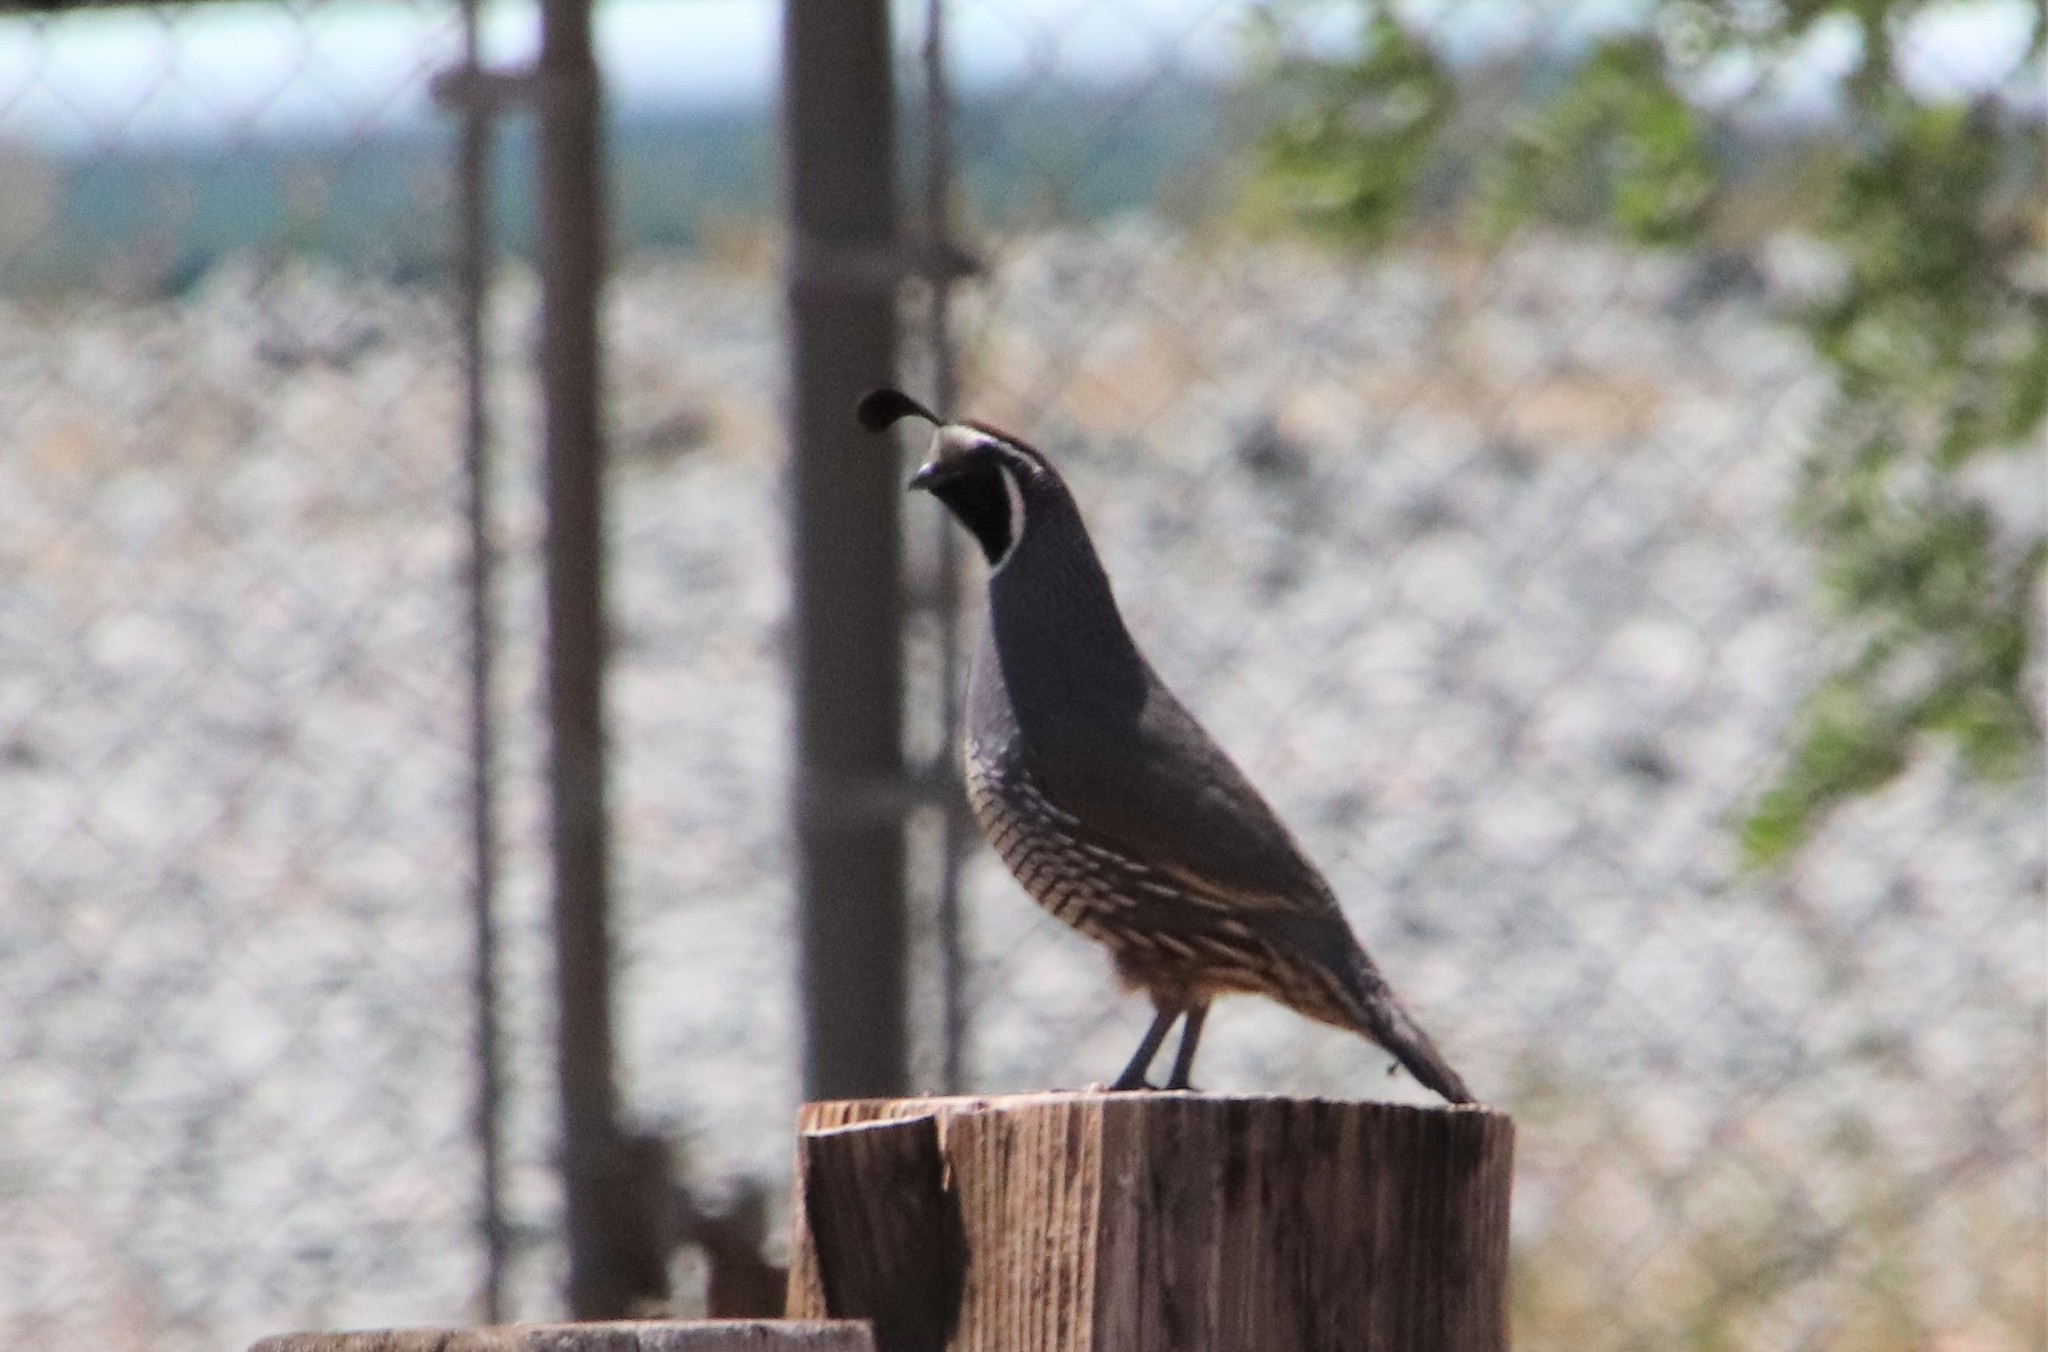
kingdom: Animalia
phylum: Chordata
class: Aves
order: Galliformes
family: Odontophoridae
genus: Callipepla
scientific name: Callipepla californica
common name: California quail
